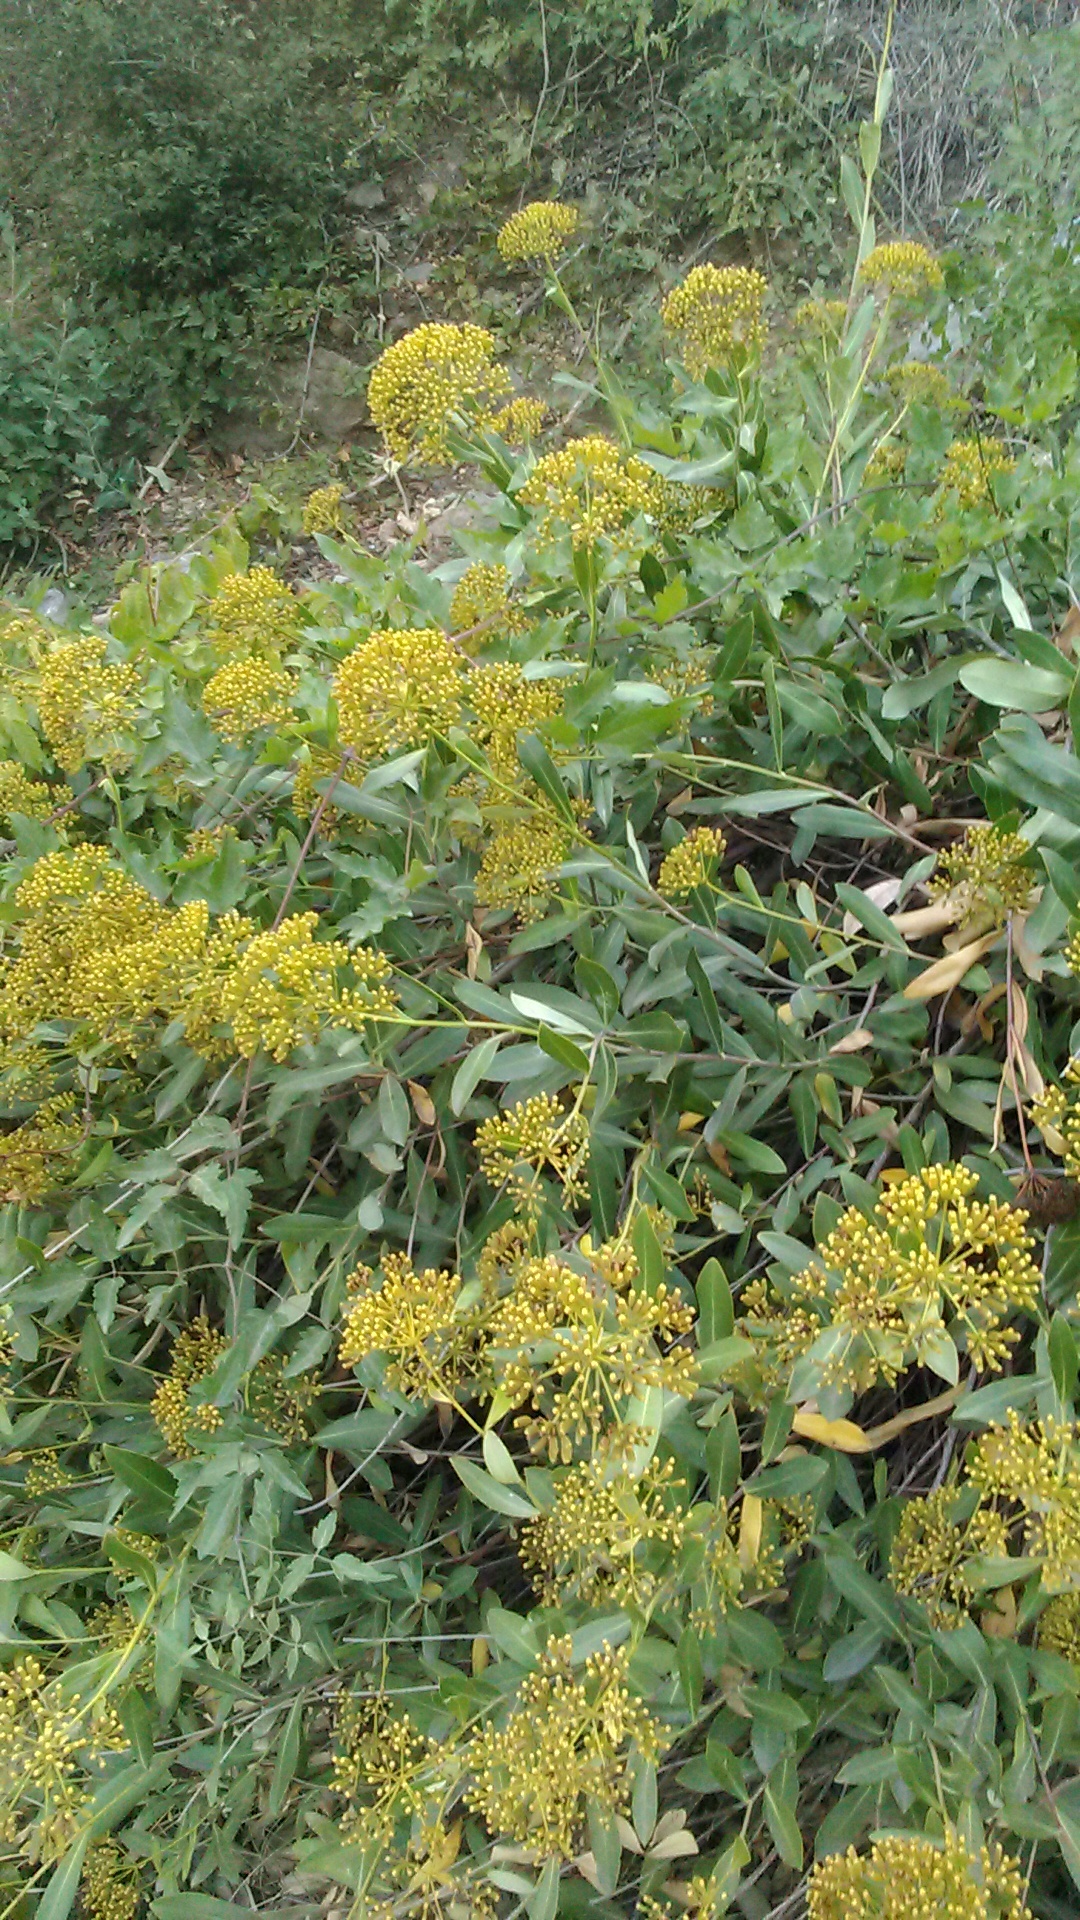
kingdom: Plantae
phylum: Tracheophyta
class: Magnoliopsida
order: Apiales
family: Apiaceae
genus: Bupleurum
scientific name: Bupleurum fruticosum
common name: Shrubby hare's-ear
